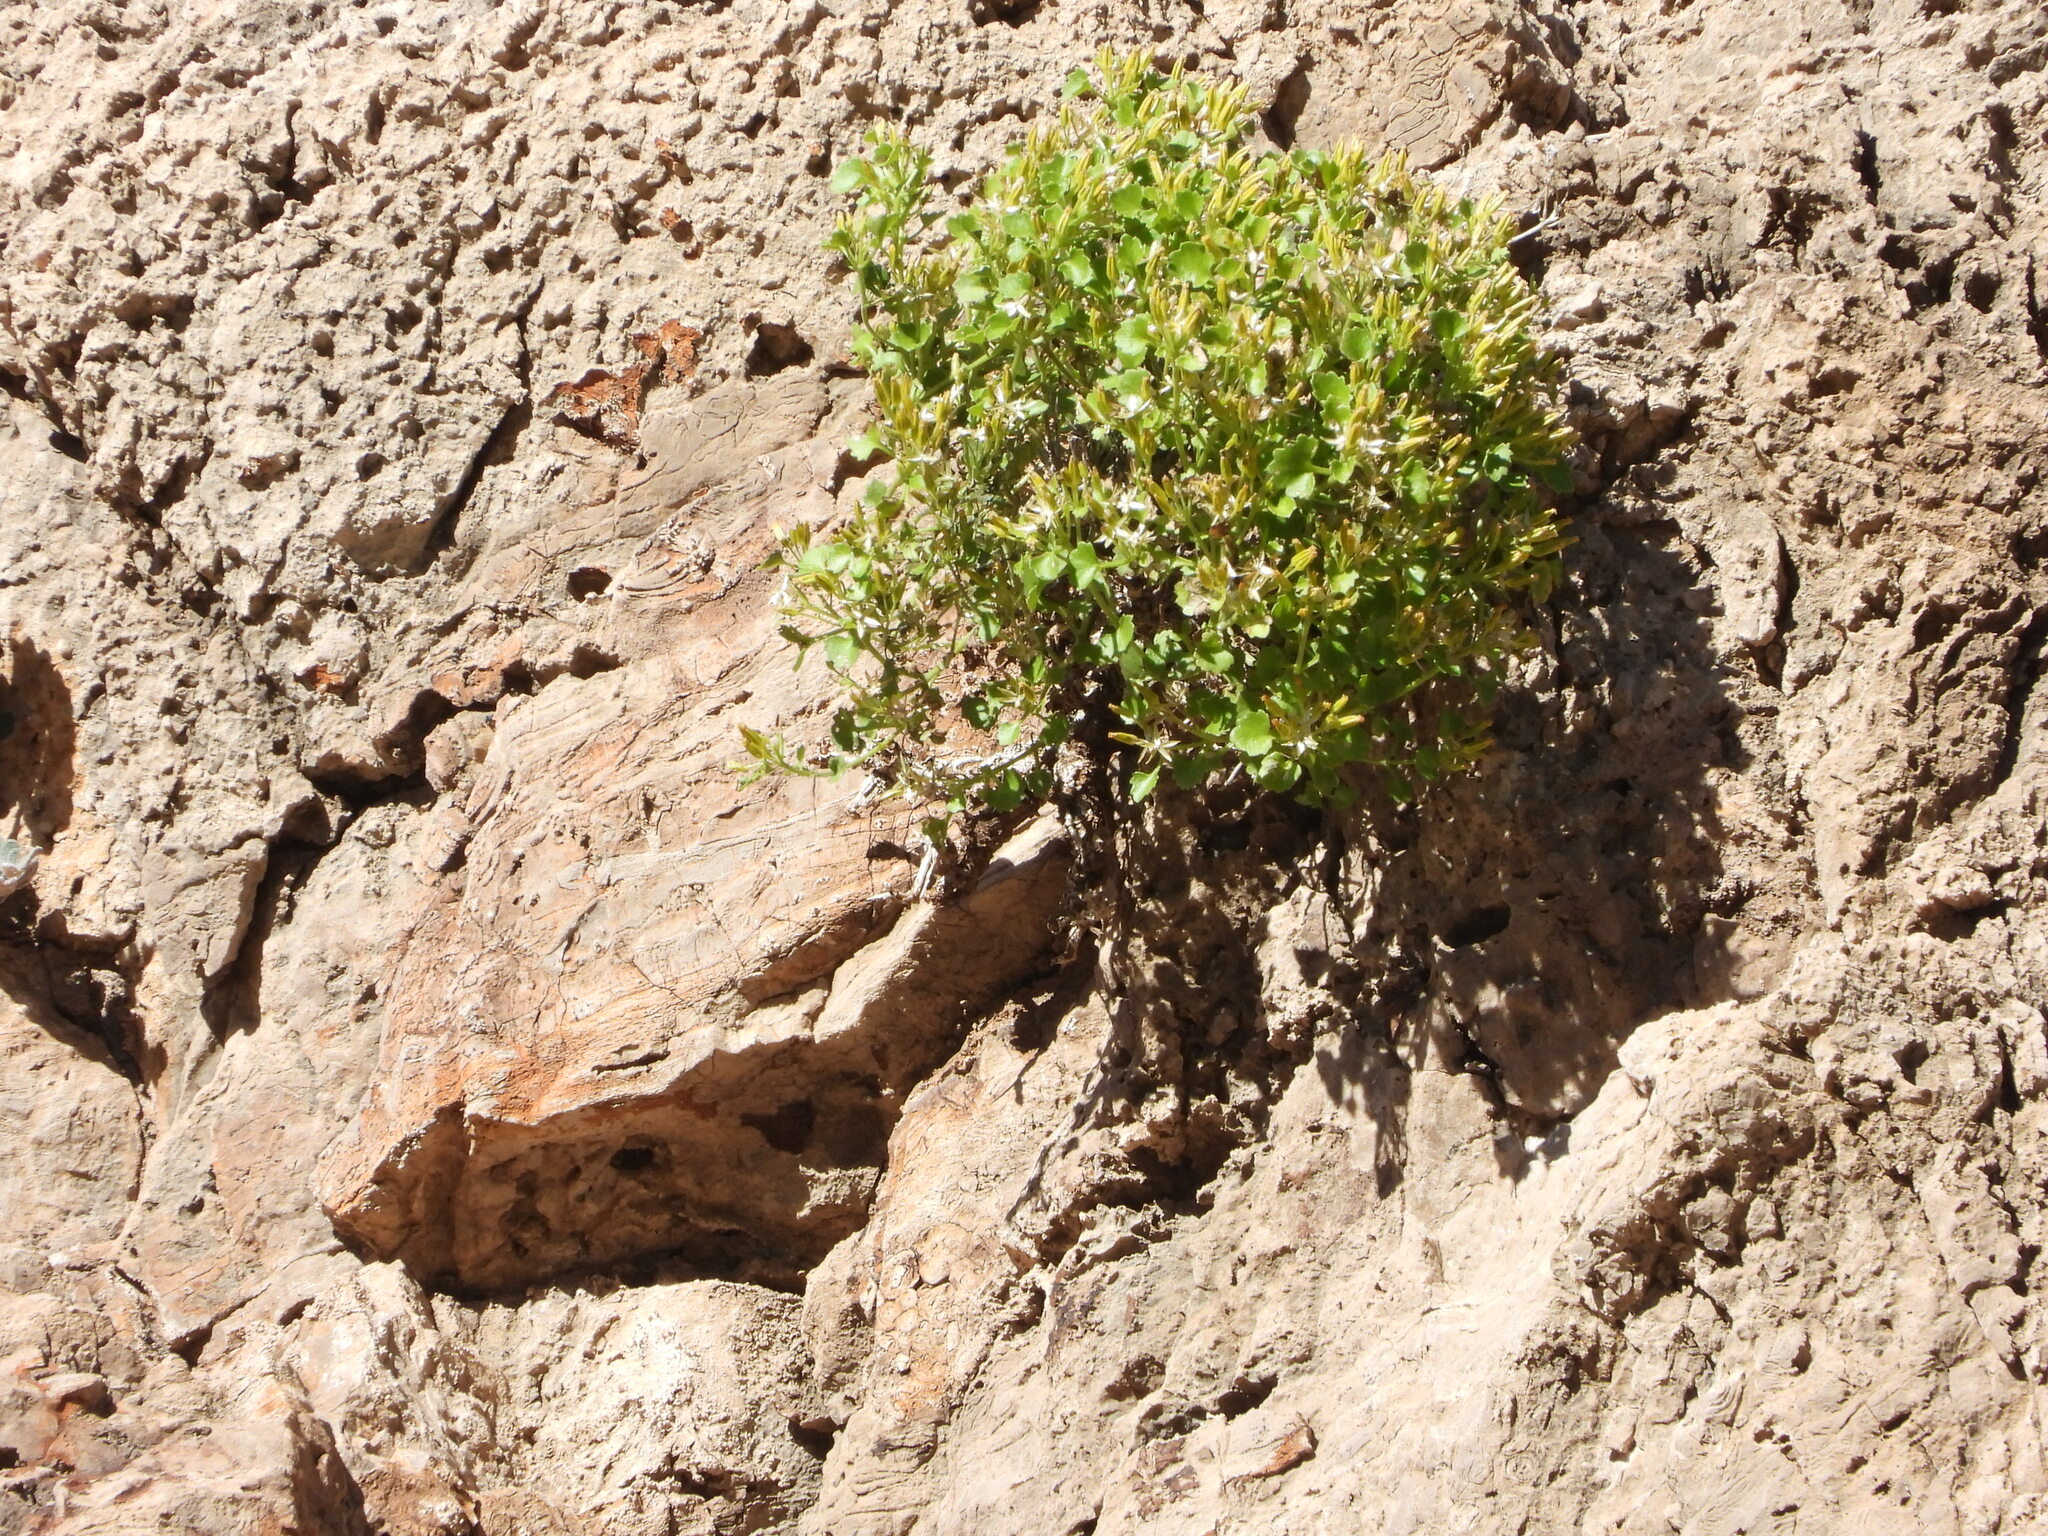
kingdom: Plantae
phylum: Tracheophyta
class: Magnoliopsida
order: Asterales
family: Asteraceae
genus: Laphamia
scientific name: Laphamia quinqueflora
